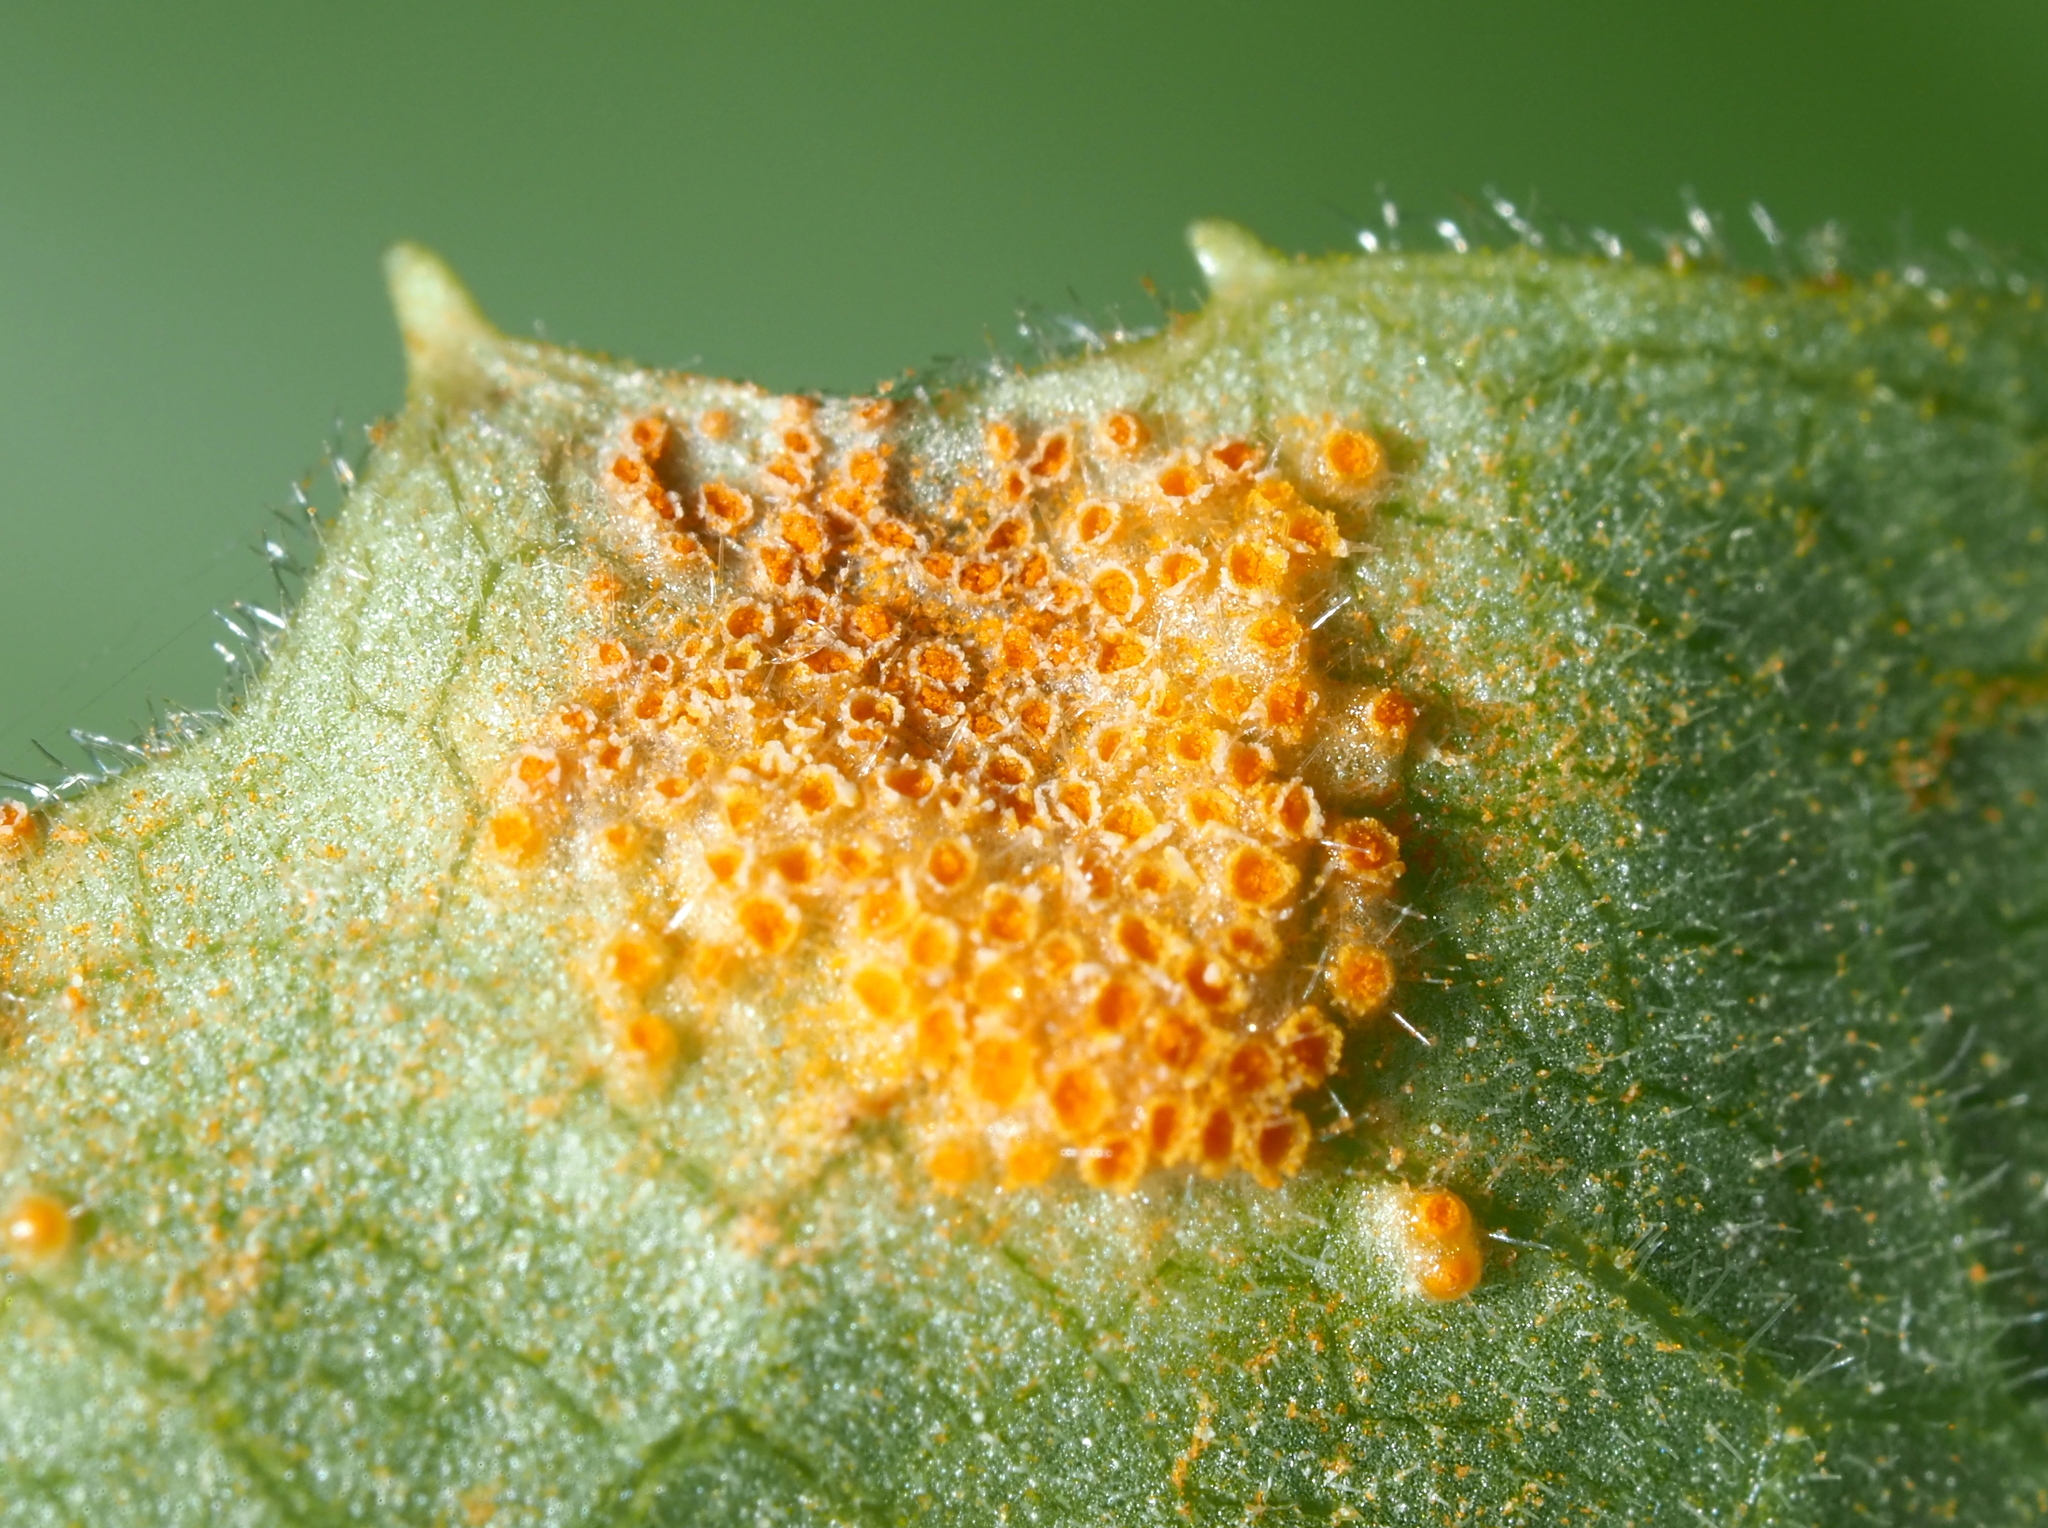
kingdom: Fungi
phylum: Basidiomycota
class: Pucciniomycetes
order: Pucciniales
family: Pucciniaceae
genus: Puccinia
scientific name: Puccinia podophylli
